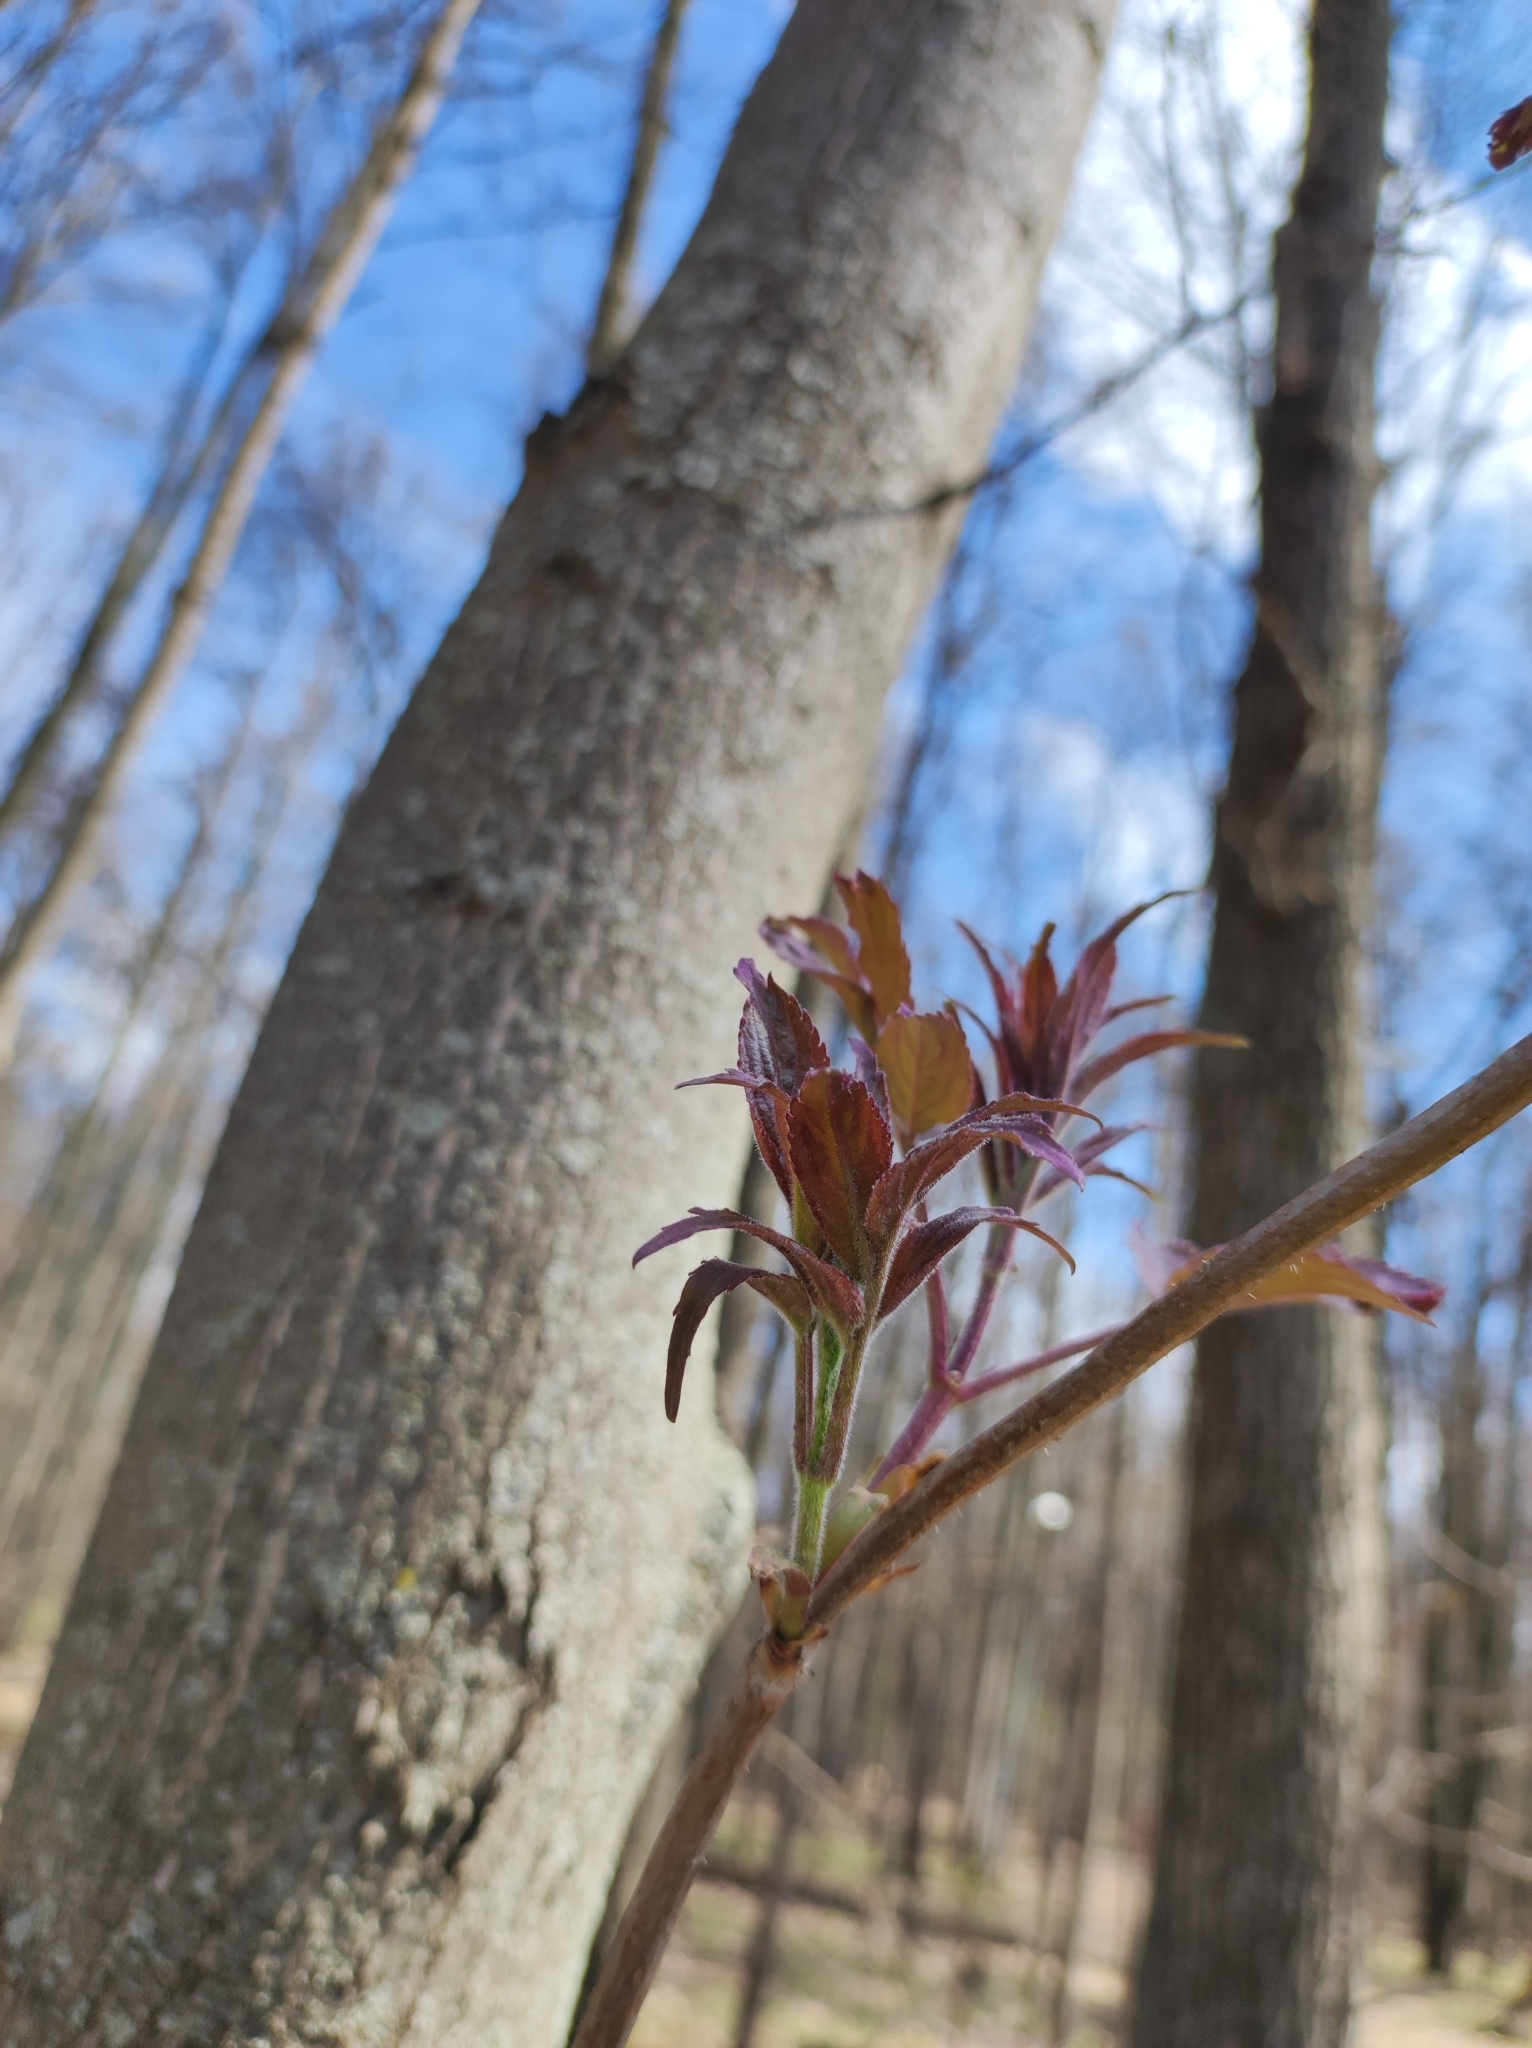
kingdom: Plantae
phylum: Tracheophyta
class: Magnoliopsida
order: Dipsacales
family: Viburnaceae
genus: Sambucus
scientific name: Sambucus racemosa
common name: Red-berried elder
